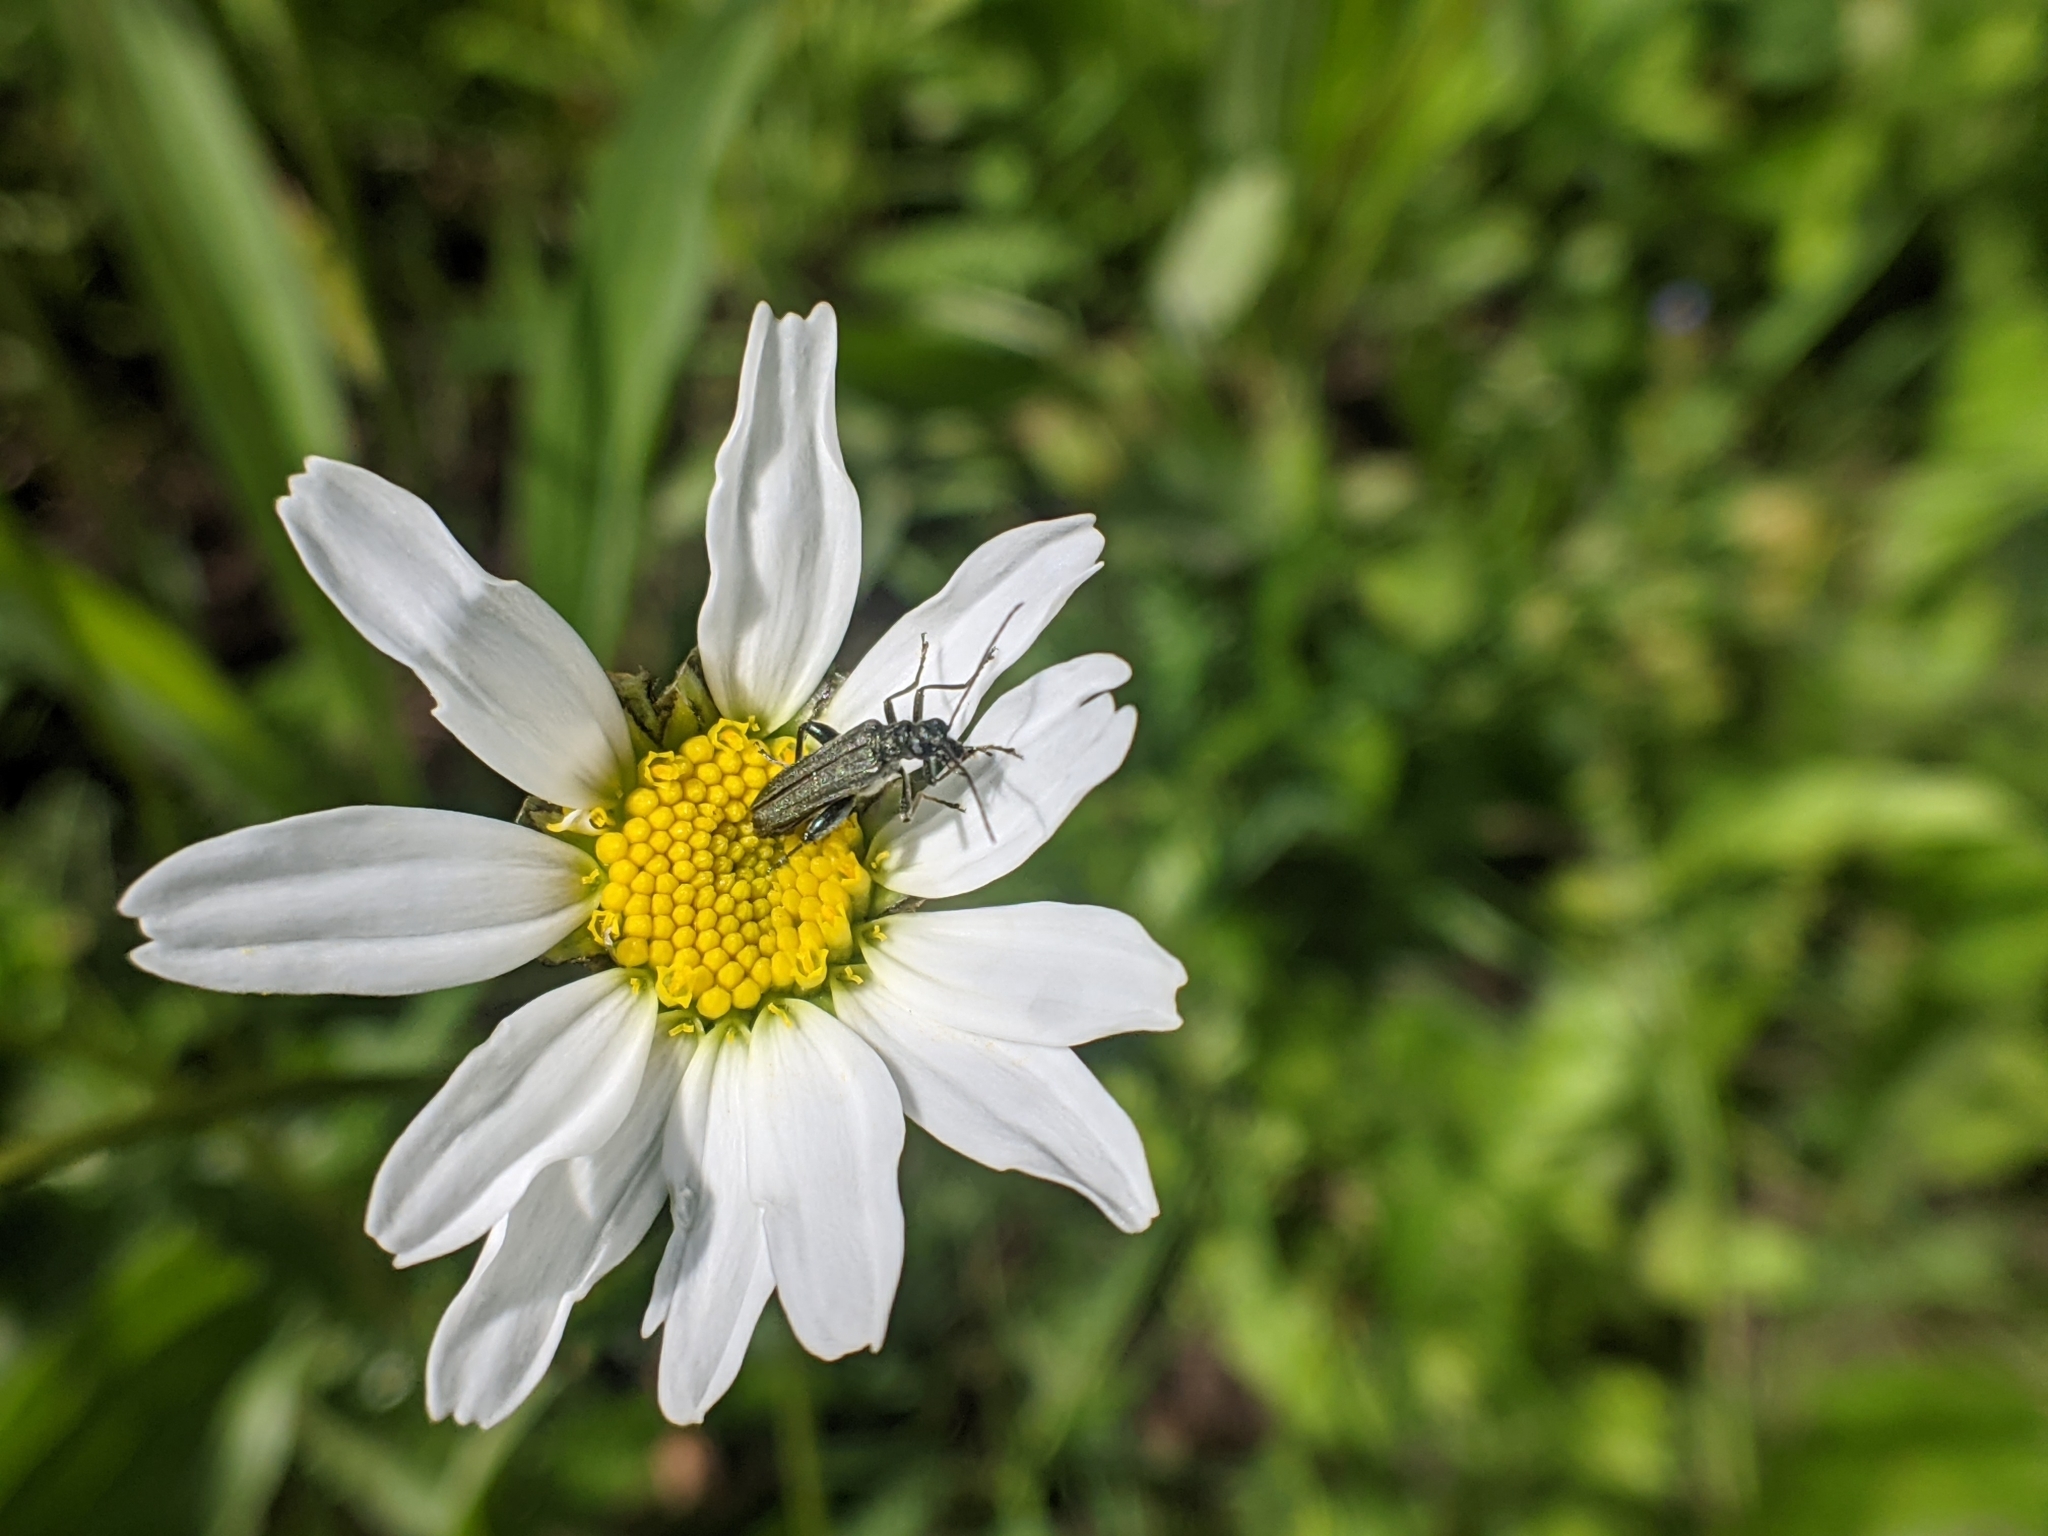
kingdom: Animalia
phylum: Arthropoda
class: Insecta
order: Coleoptera
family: Oedemeridae
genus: Oedemera
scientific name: Oedemera virescens
